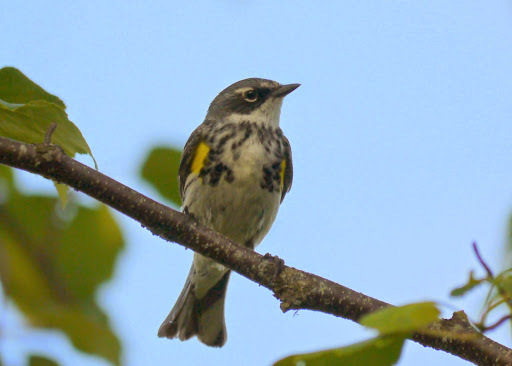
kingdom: Animalia
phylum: Chordata
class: Aves
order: Passeriformes
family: Parulidae
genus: Setophaga
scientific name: Setophaga coronata
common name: Myrtle warbler
